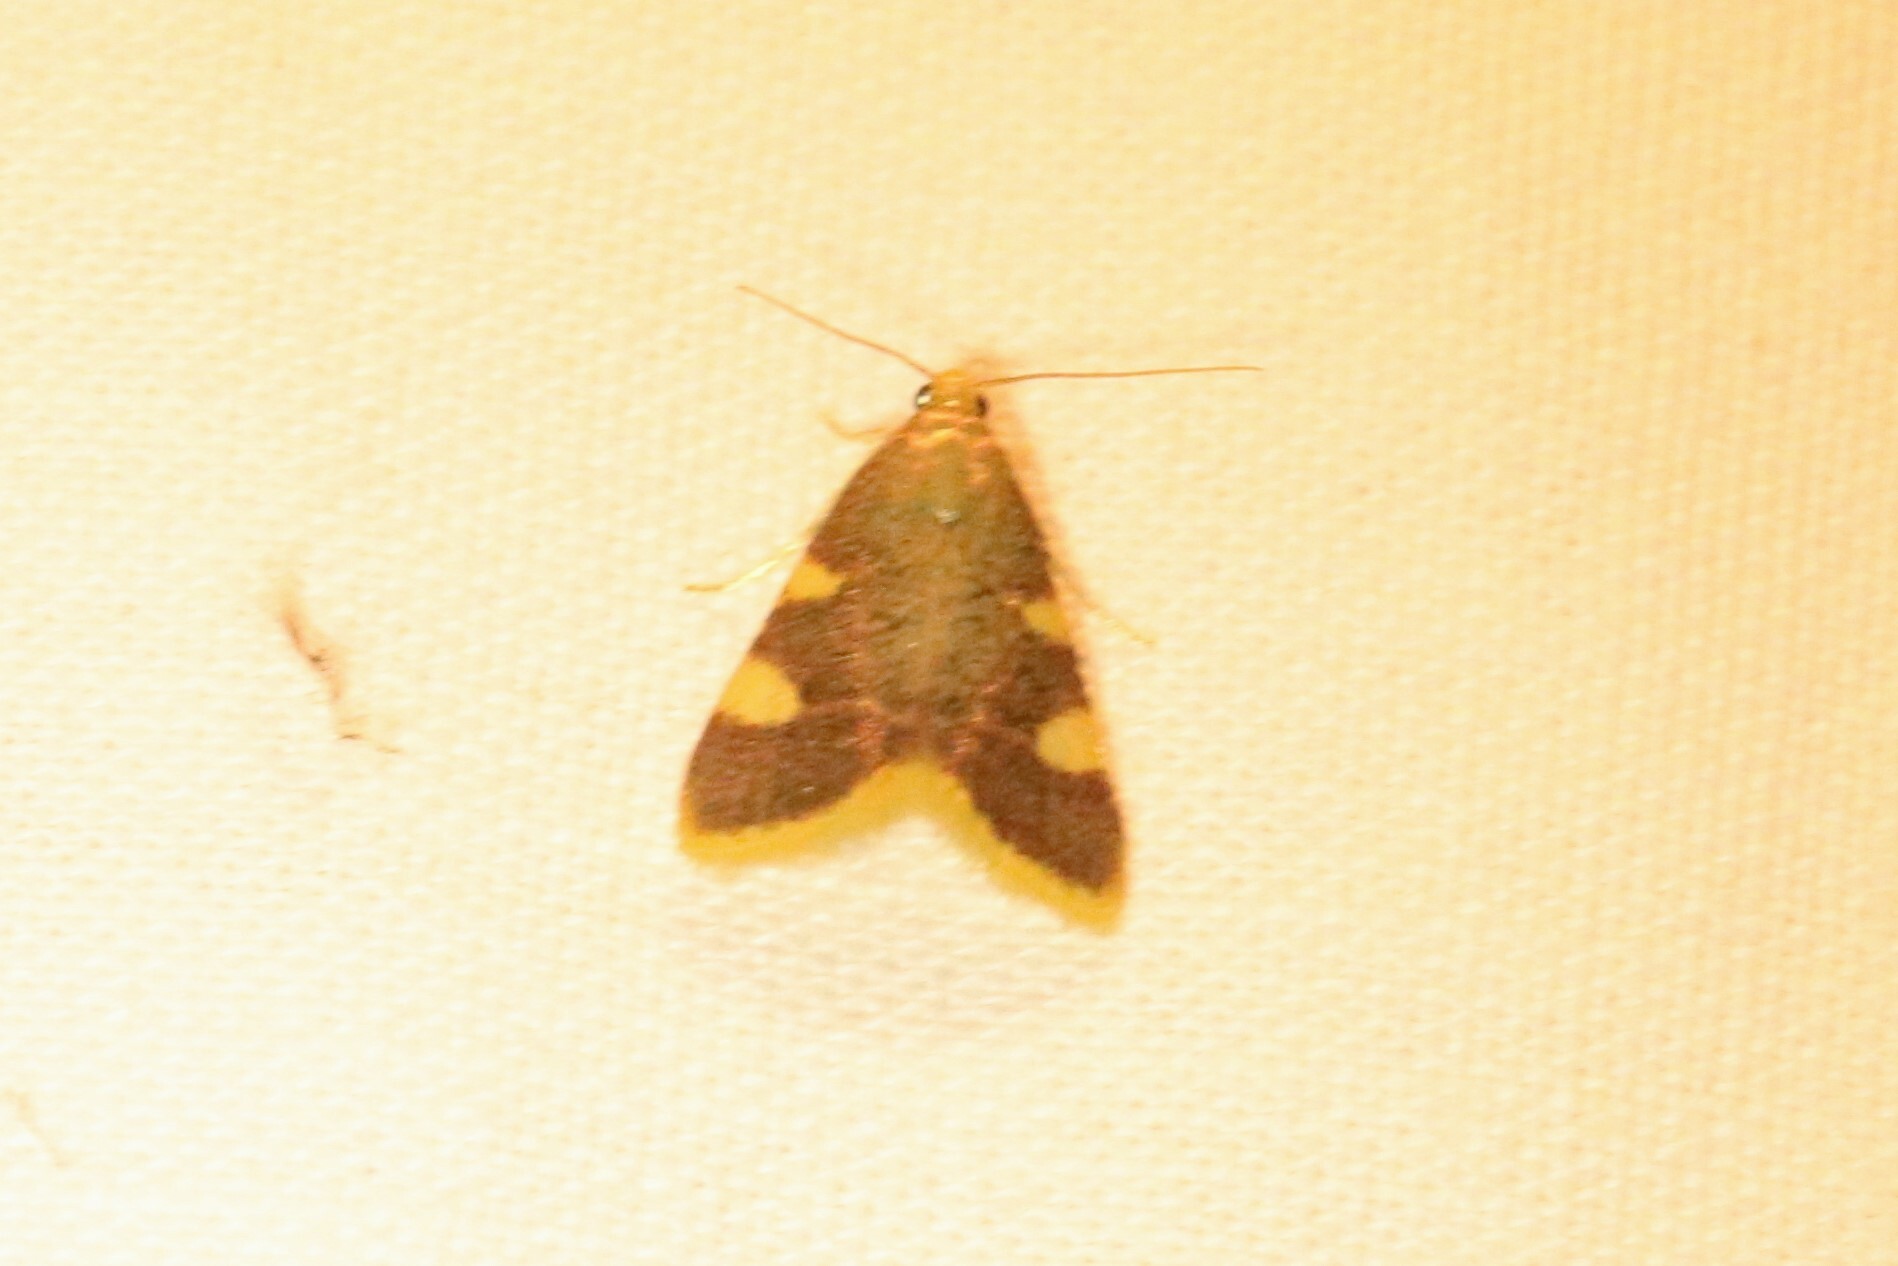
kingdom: Animalia
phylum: Arthropoda
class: Insecta
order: Lepidoptera
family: Pyralidae
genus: Hypsopygia
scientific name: Hypsopygia costalis
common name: Gold triangle
